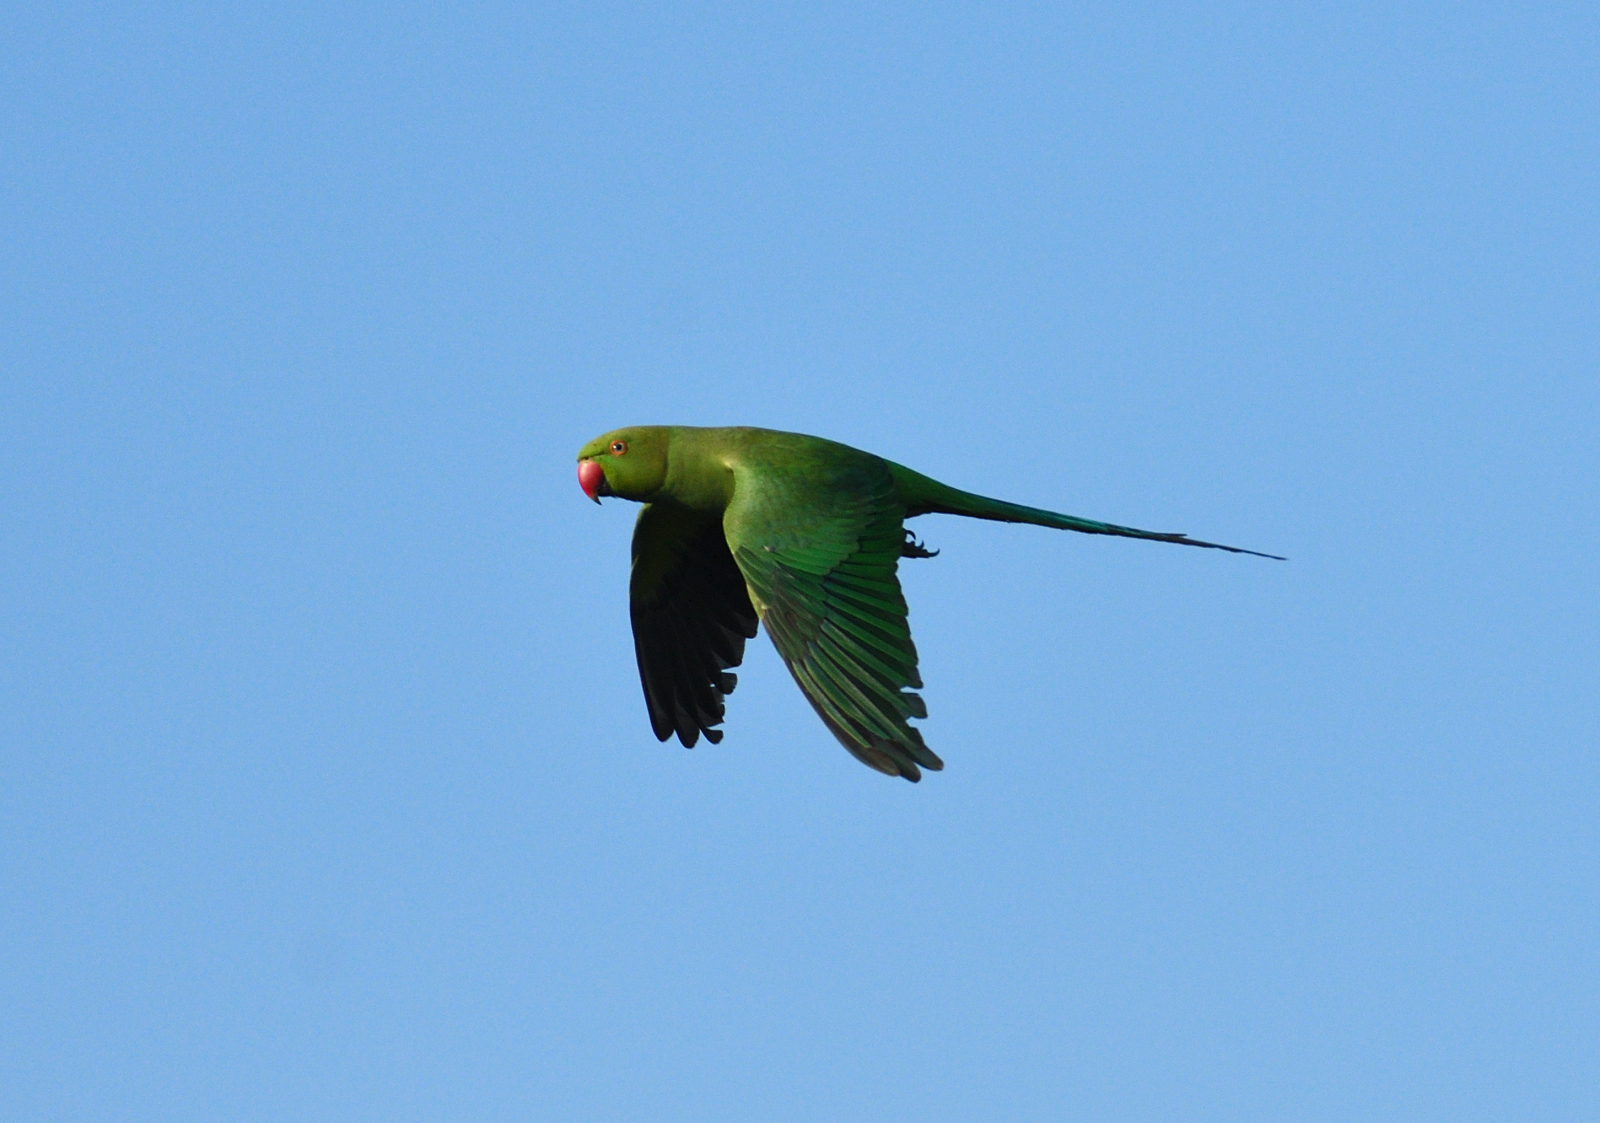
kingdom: Animalia
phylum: Chordata
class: Aves
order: Psittaciformes
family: Psittacidae
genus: Psittacula
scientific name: Psittacula krameri
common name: Rose-ringed parakeet
